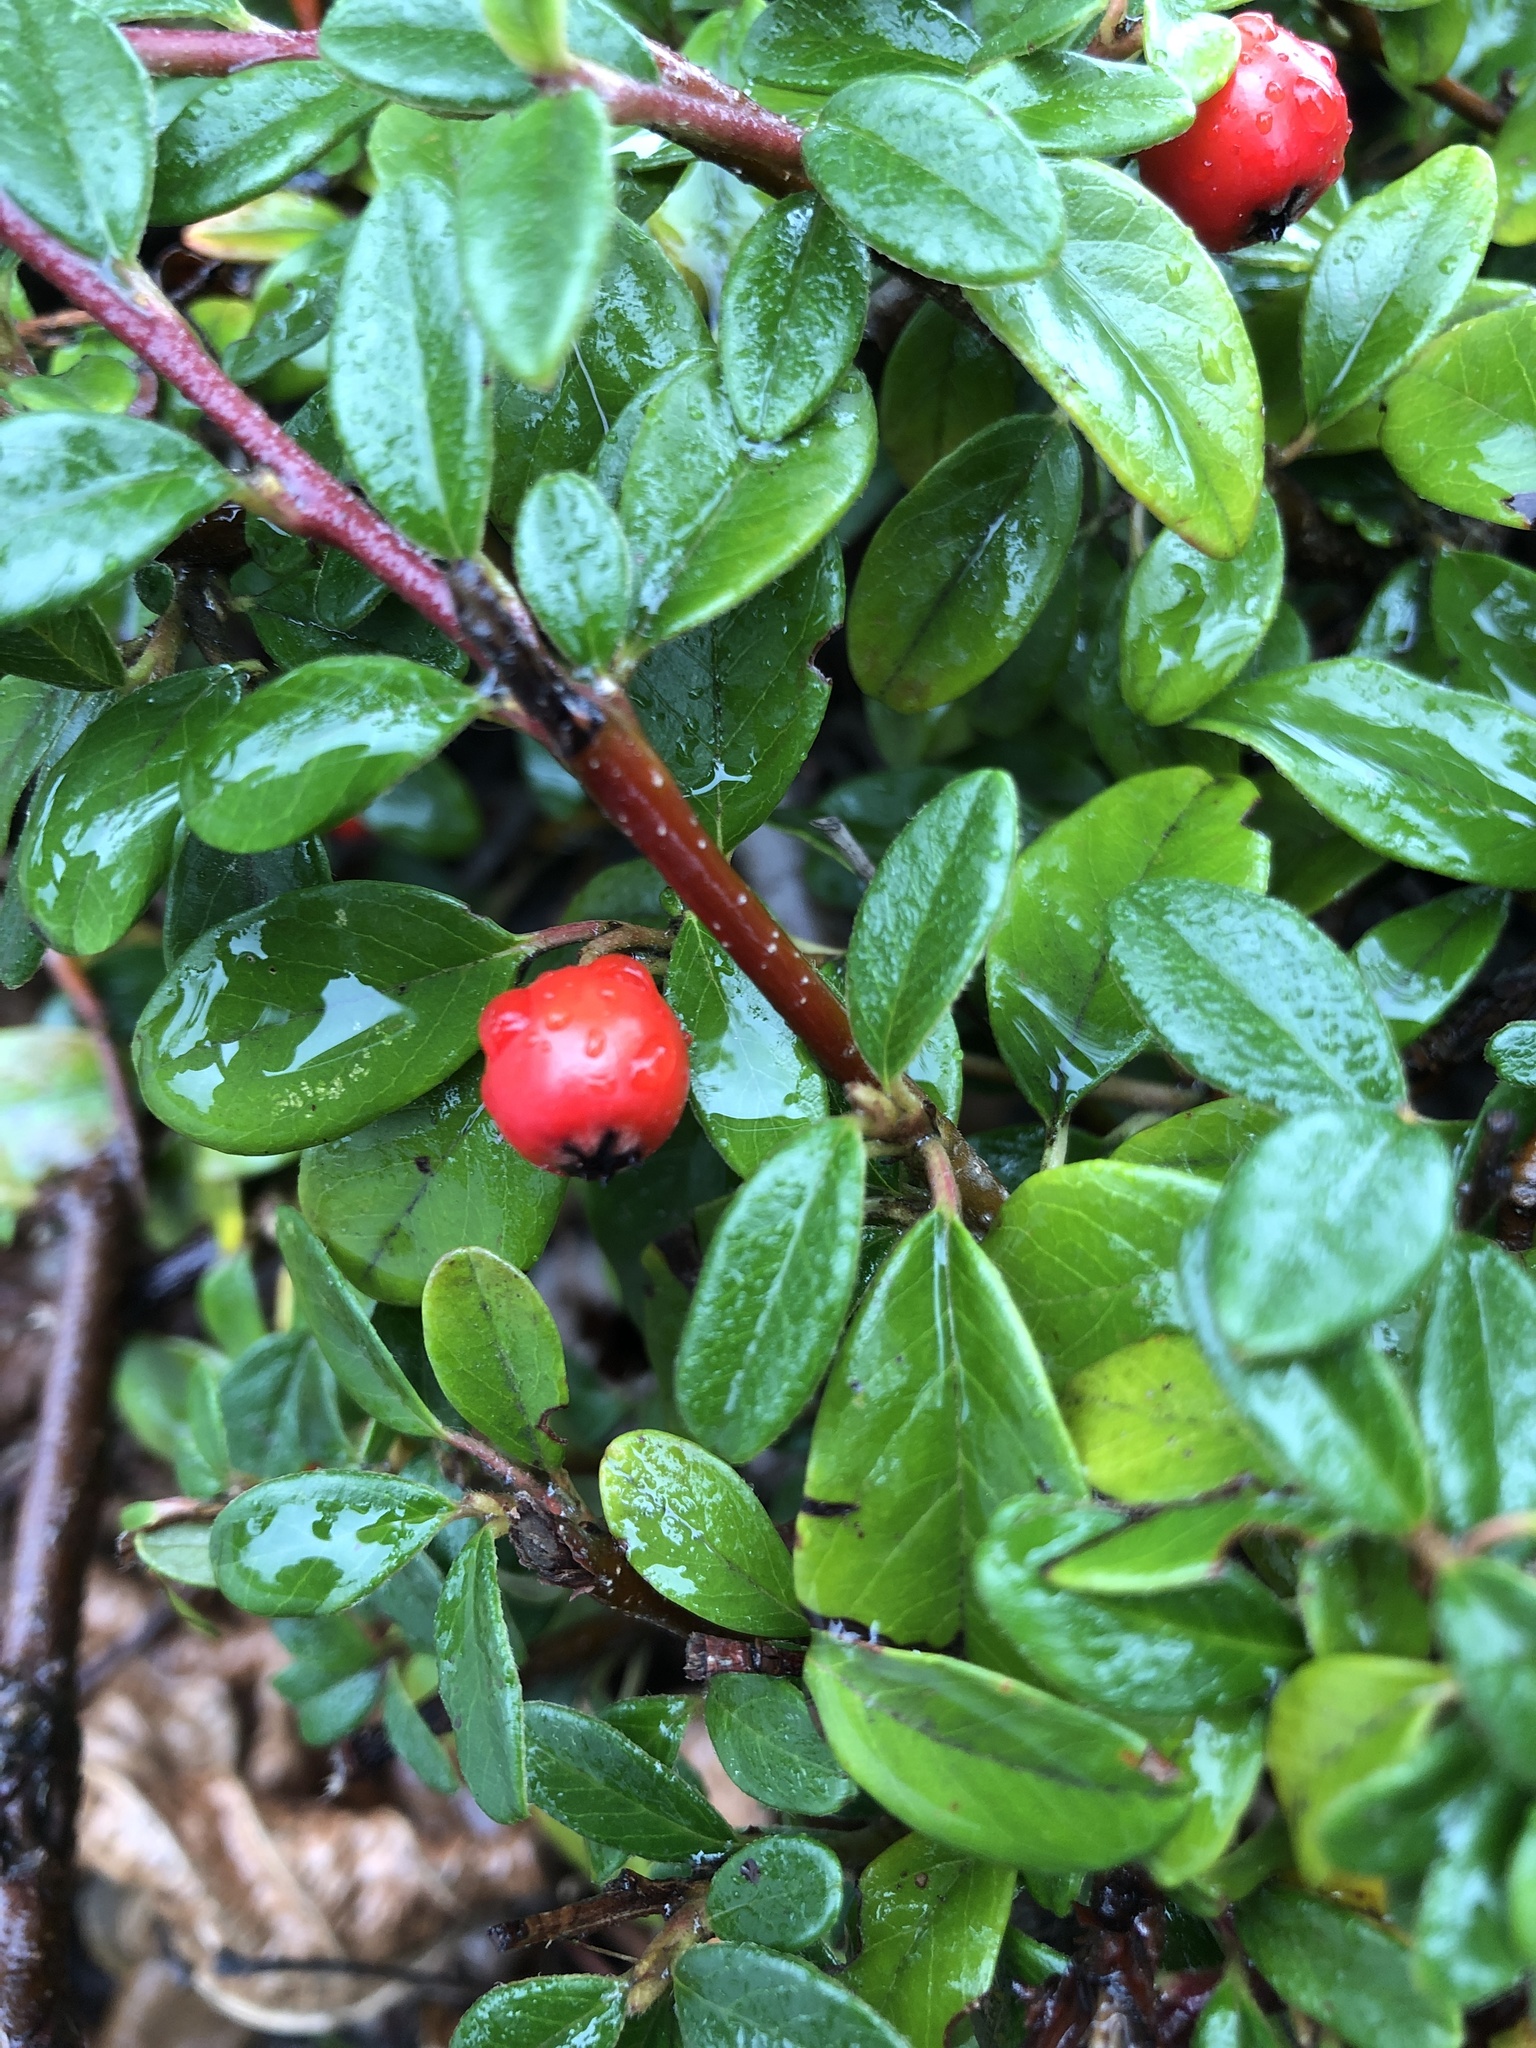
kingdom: Plantae
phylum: Tracheophyta
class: Magnoliopsida
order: Rosales
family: Rosaceae
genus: Cotoneaster
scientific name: Cotoneaster horizontalis
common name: Wall cotoneaster
